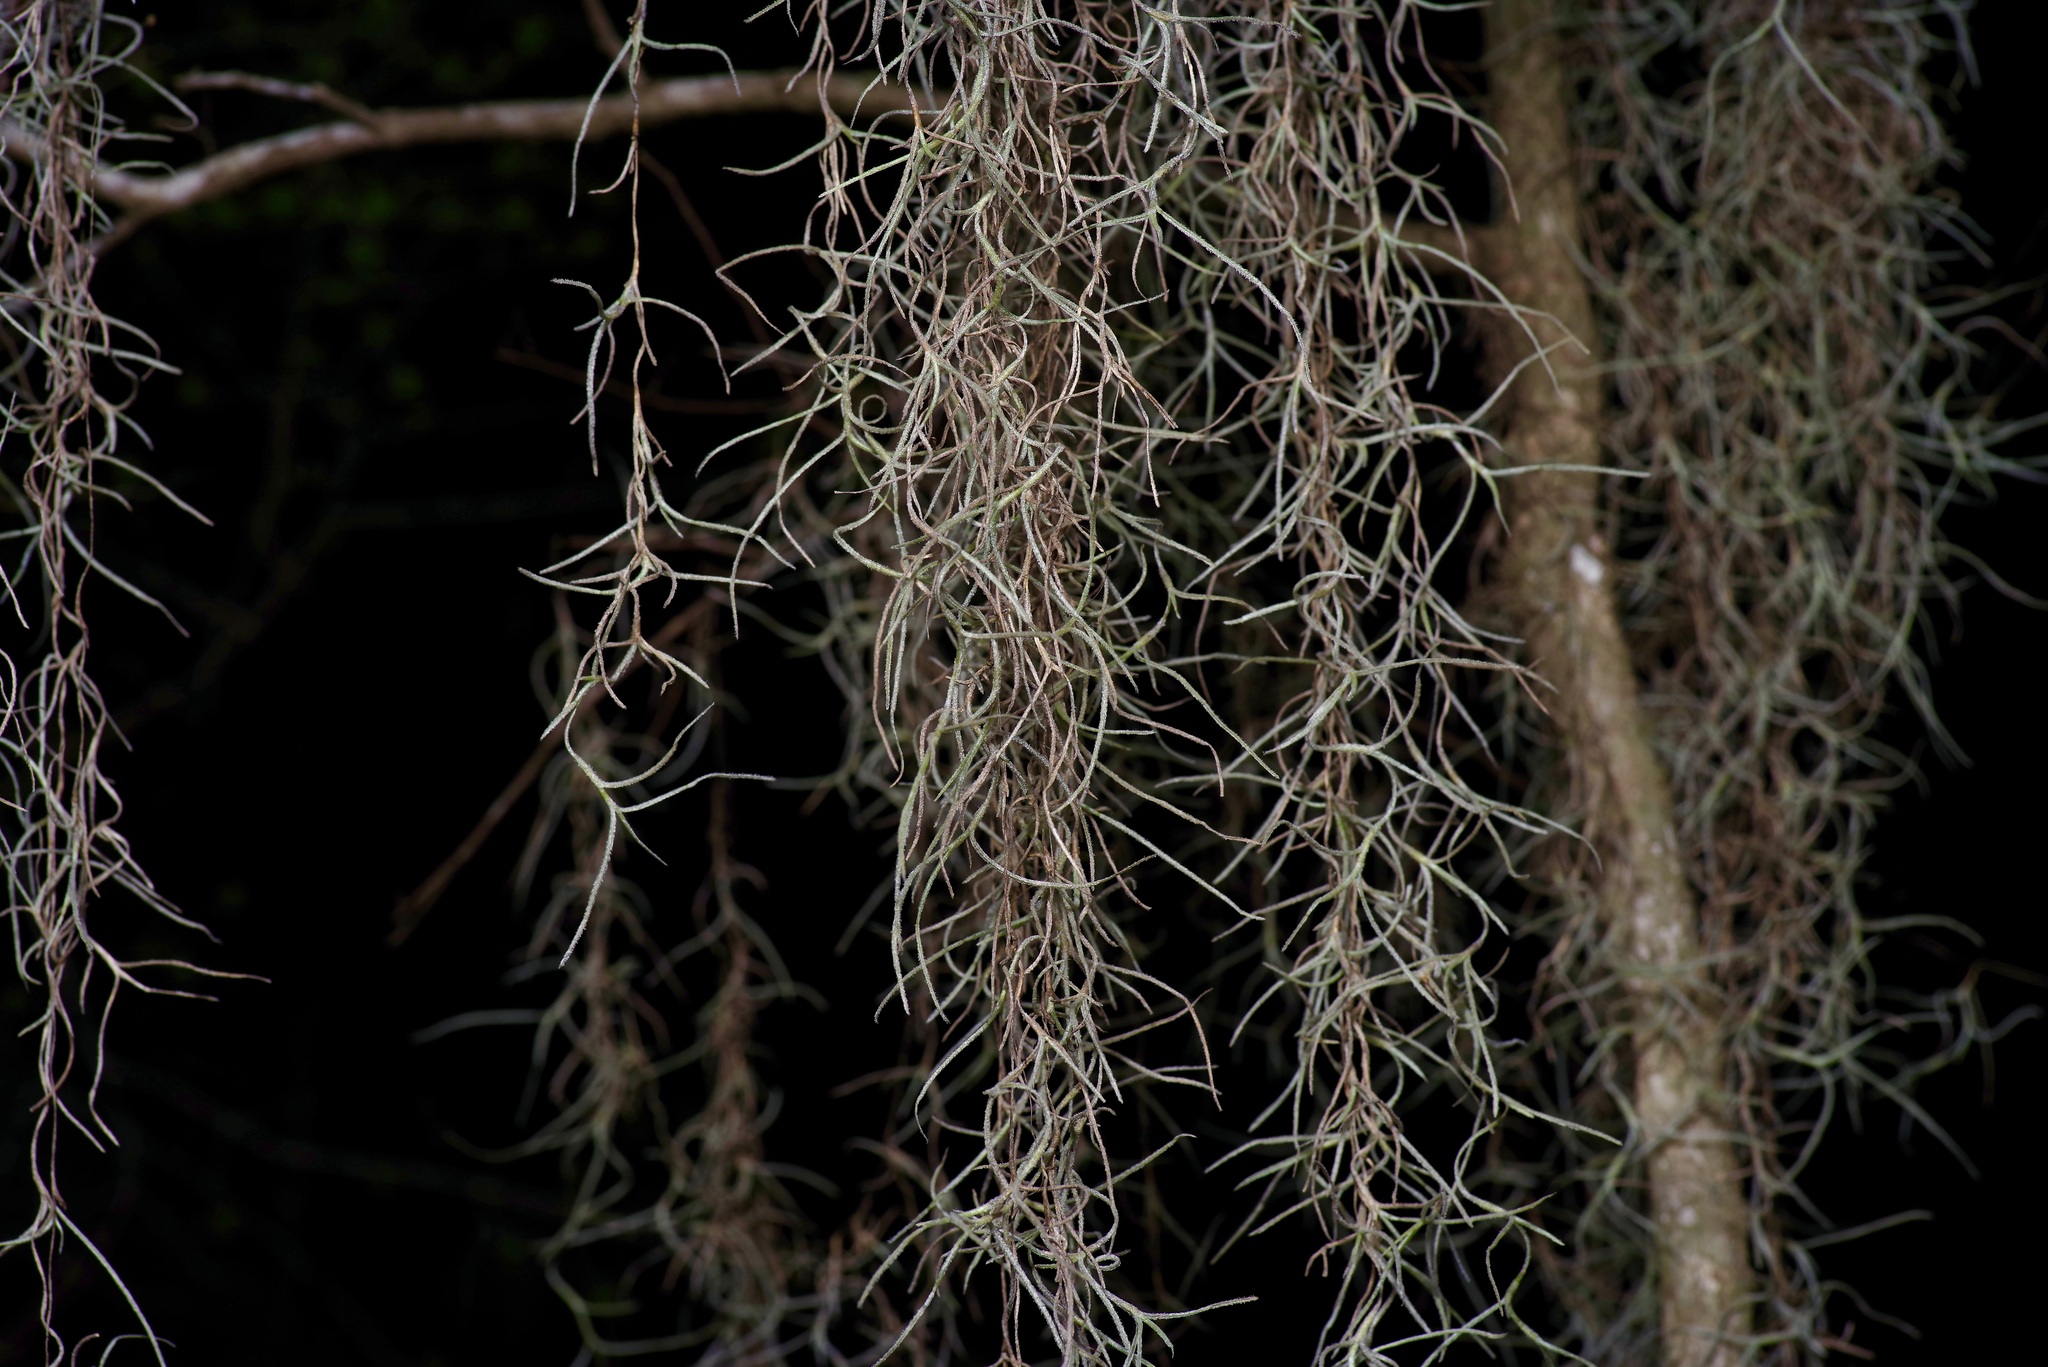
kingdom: Plantae
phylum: Tracheophyta
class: Liliopsida
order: Poales
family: Bromeliaceae
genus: Tillandsia
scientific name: Tillandsia usneoides
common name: Spanish moss
